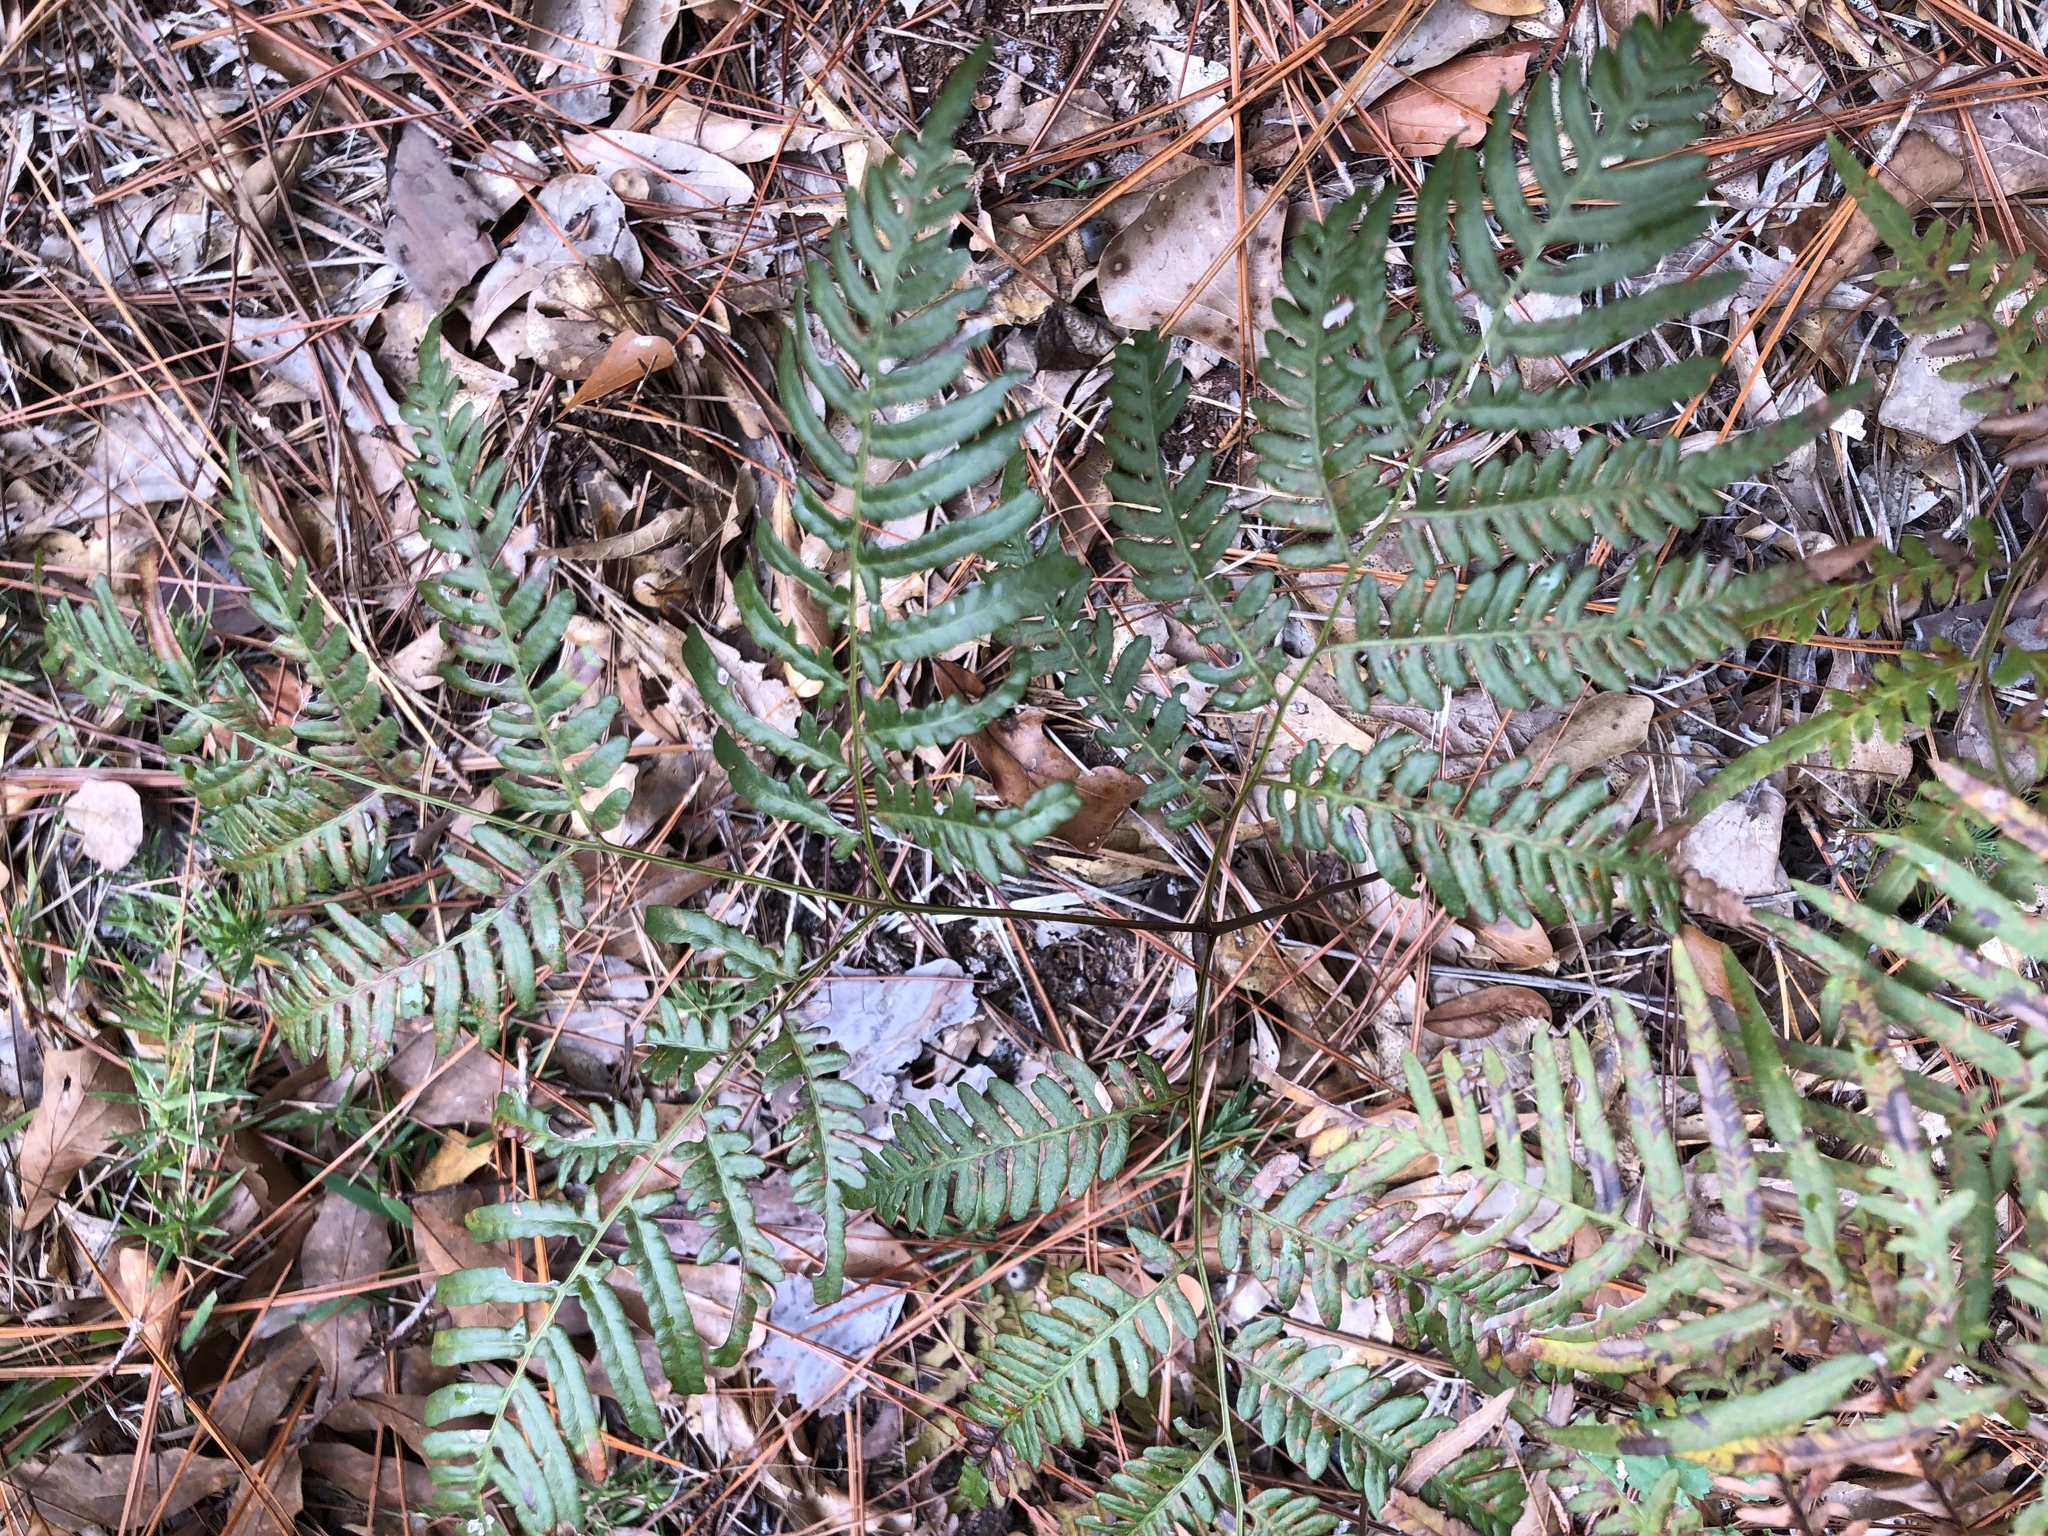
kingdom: Plantae
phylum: Tracheophyta
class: Polypodiopsida
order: Polypodiales
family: Dennstaedtiaceae
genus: Pteridium
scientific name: Pteridium
